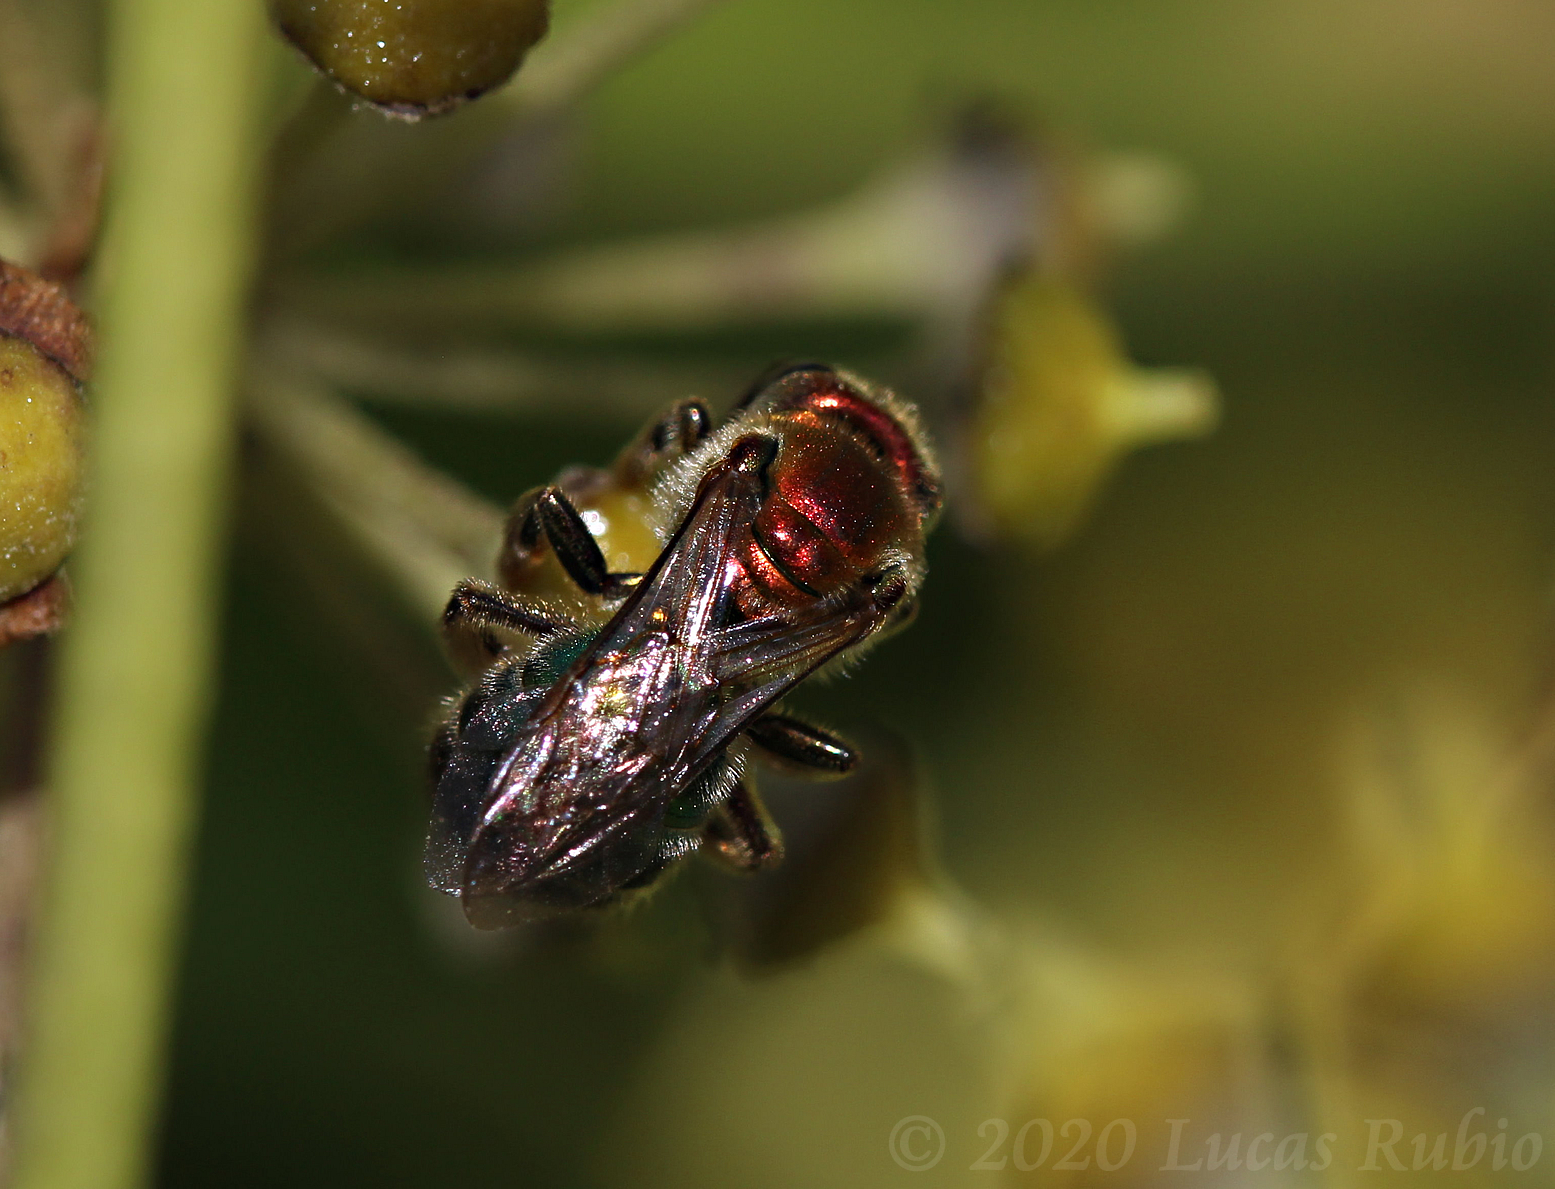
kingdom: Animalia
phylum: Arthropoda
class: Insecta
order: Hymenoptera
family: Halictidae
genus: Augochloropsis
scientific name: Augochloropsis tupacamaru
